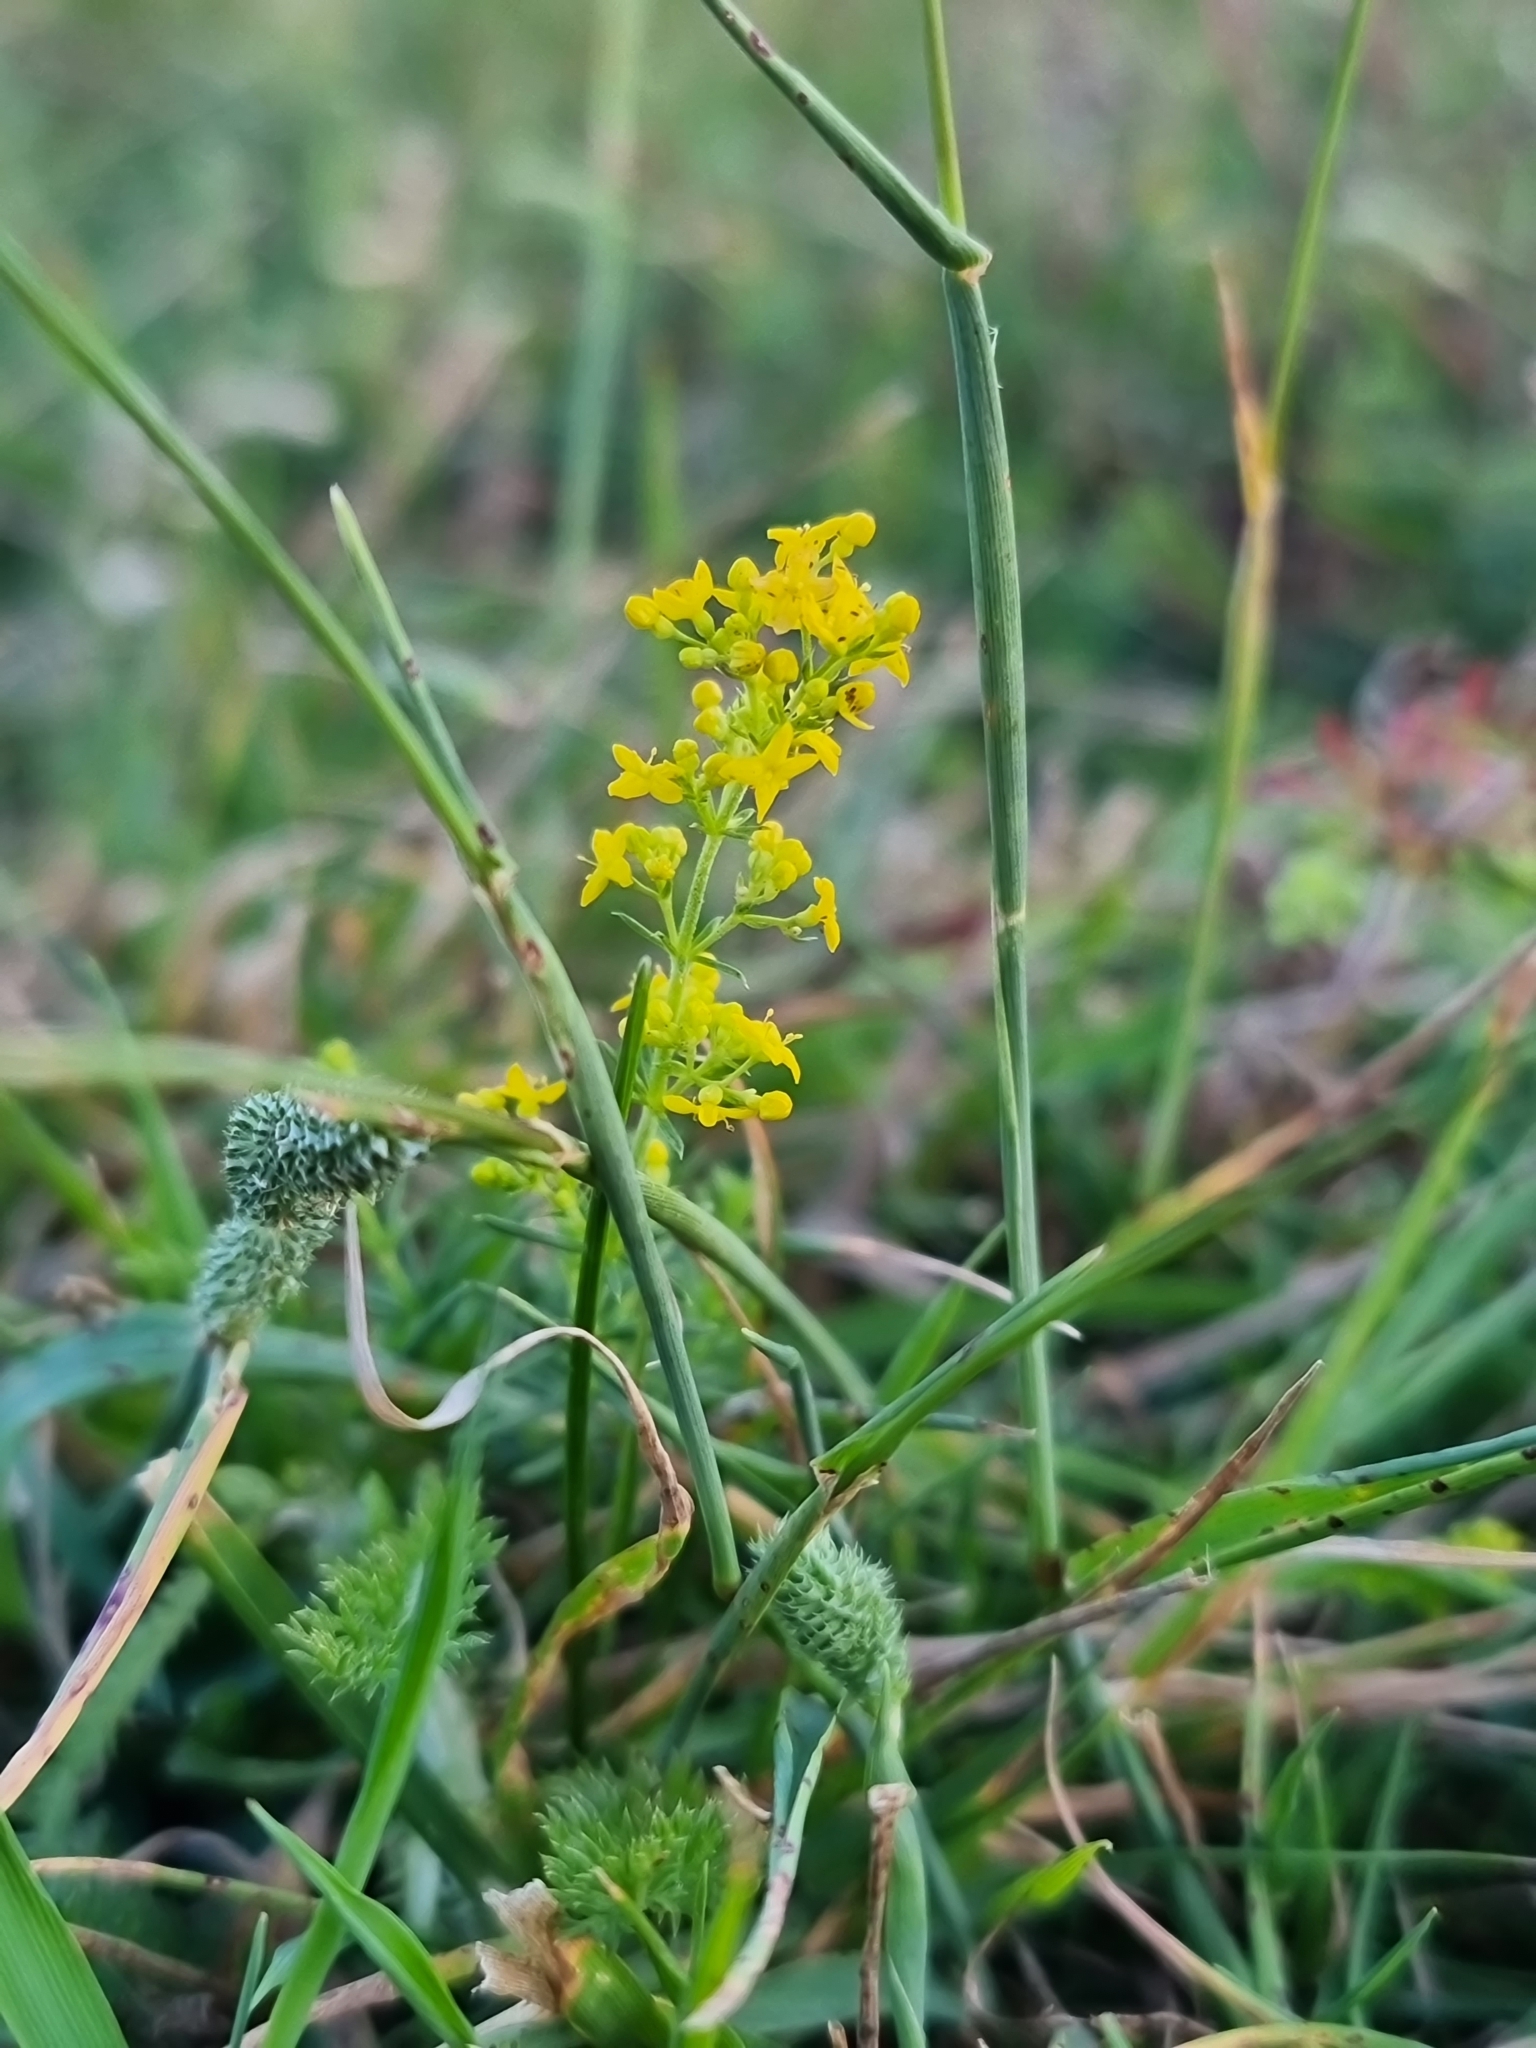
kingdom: Plantae
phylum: Tracheophyta
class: Magnoliopsida
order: Gentianales
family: Rubiaceae
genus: Galium
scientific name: Galium verum
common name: Lady's bedstraw
